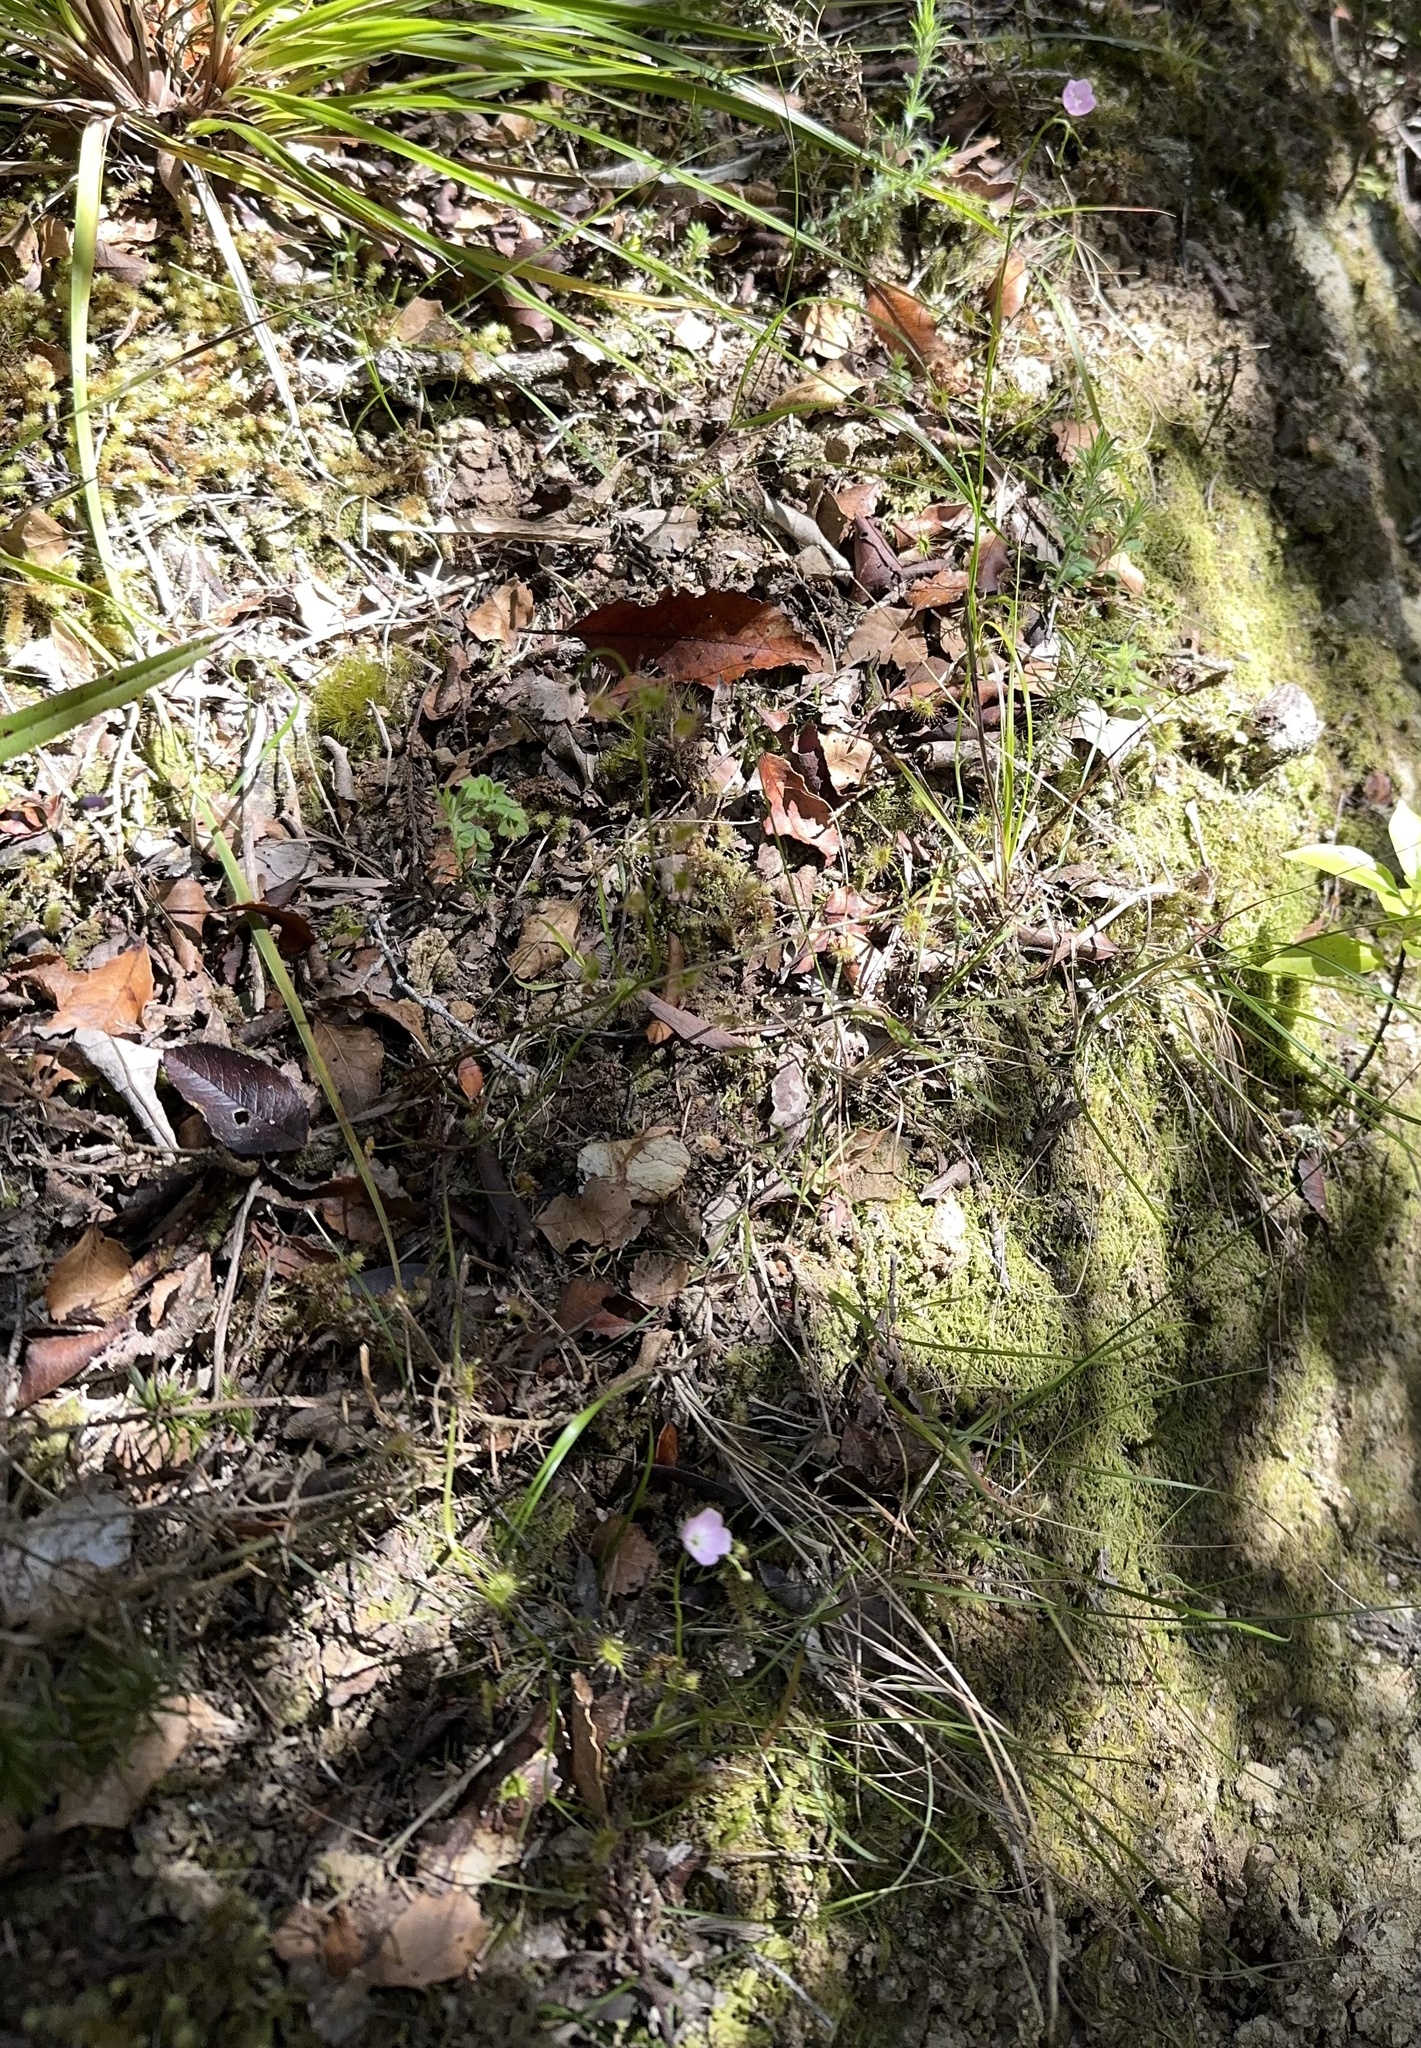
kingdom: Plantae
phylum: Tracheophyta
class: Magnoliopsida
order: Caryophyllales
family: Droseraceae
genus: Drosera
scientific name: Drosera peltata
